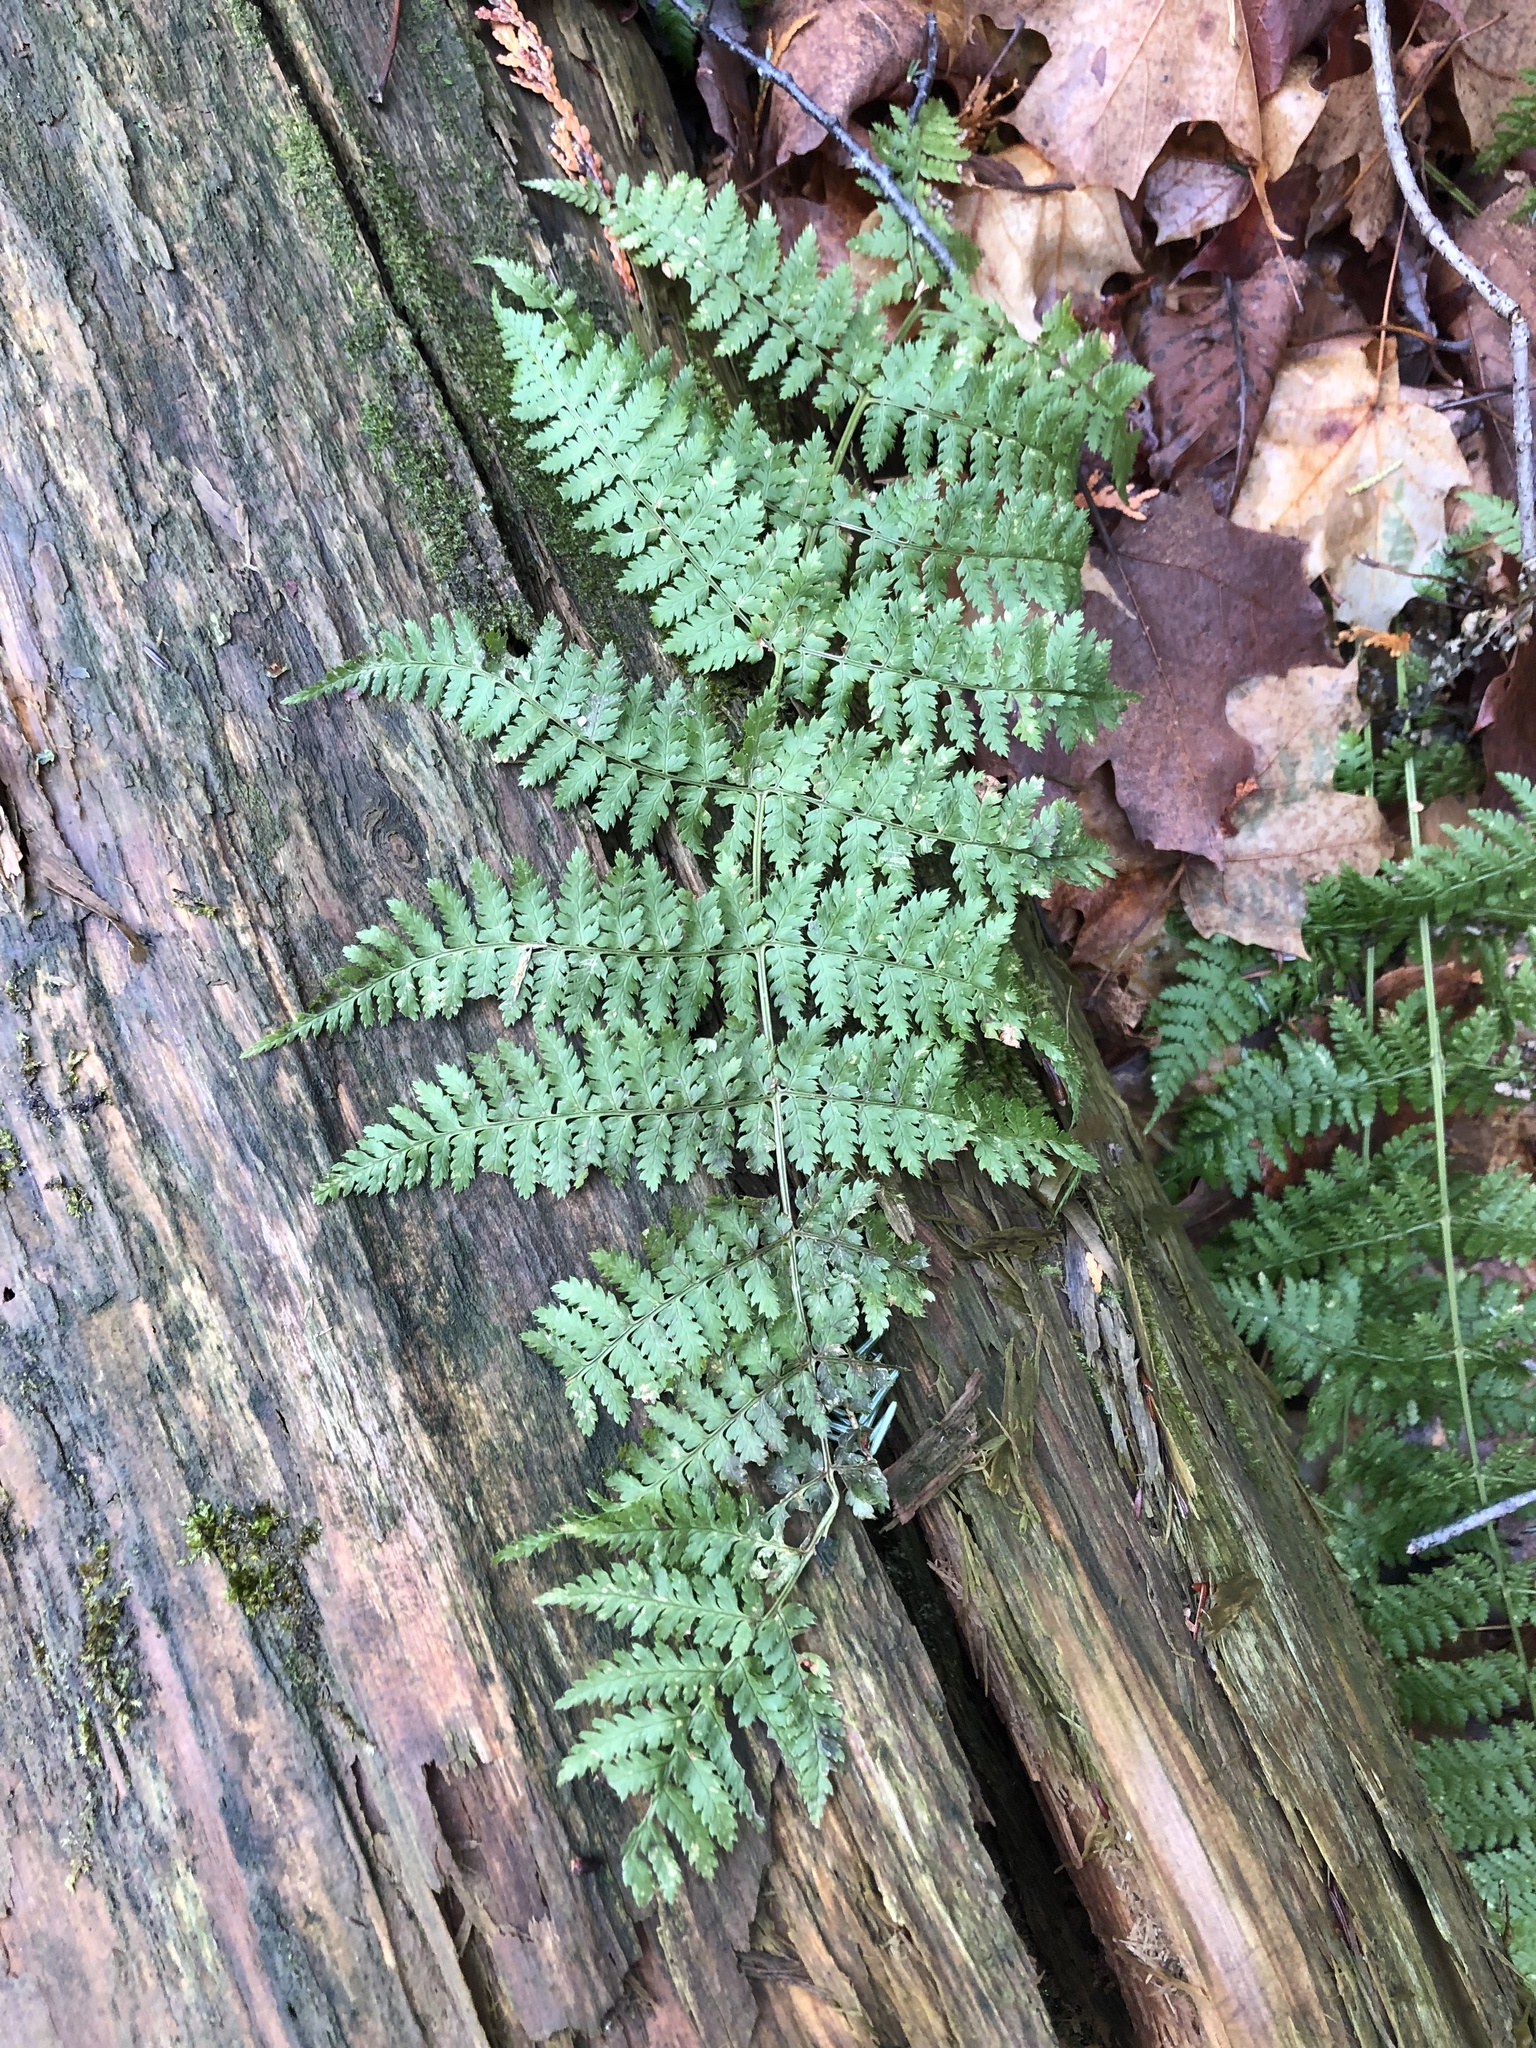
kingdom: Plantae
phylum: Tracheophyta
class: Polypodiopsida
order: Polypodiales
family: Dryopteridaceae
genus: Dryopteris
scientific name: Dryopteris intermedia
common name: Evergreen wood fern
